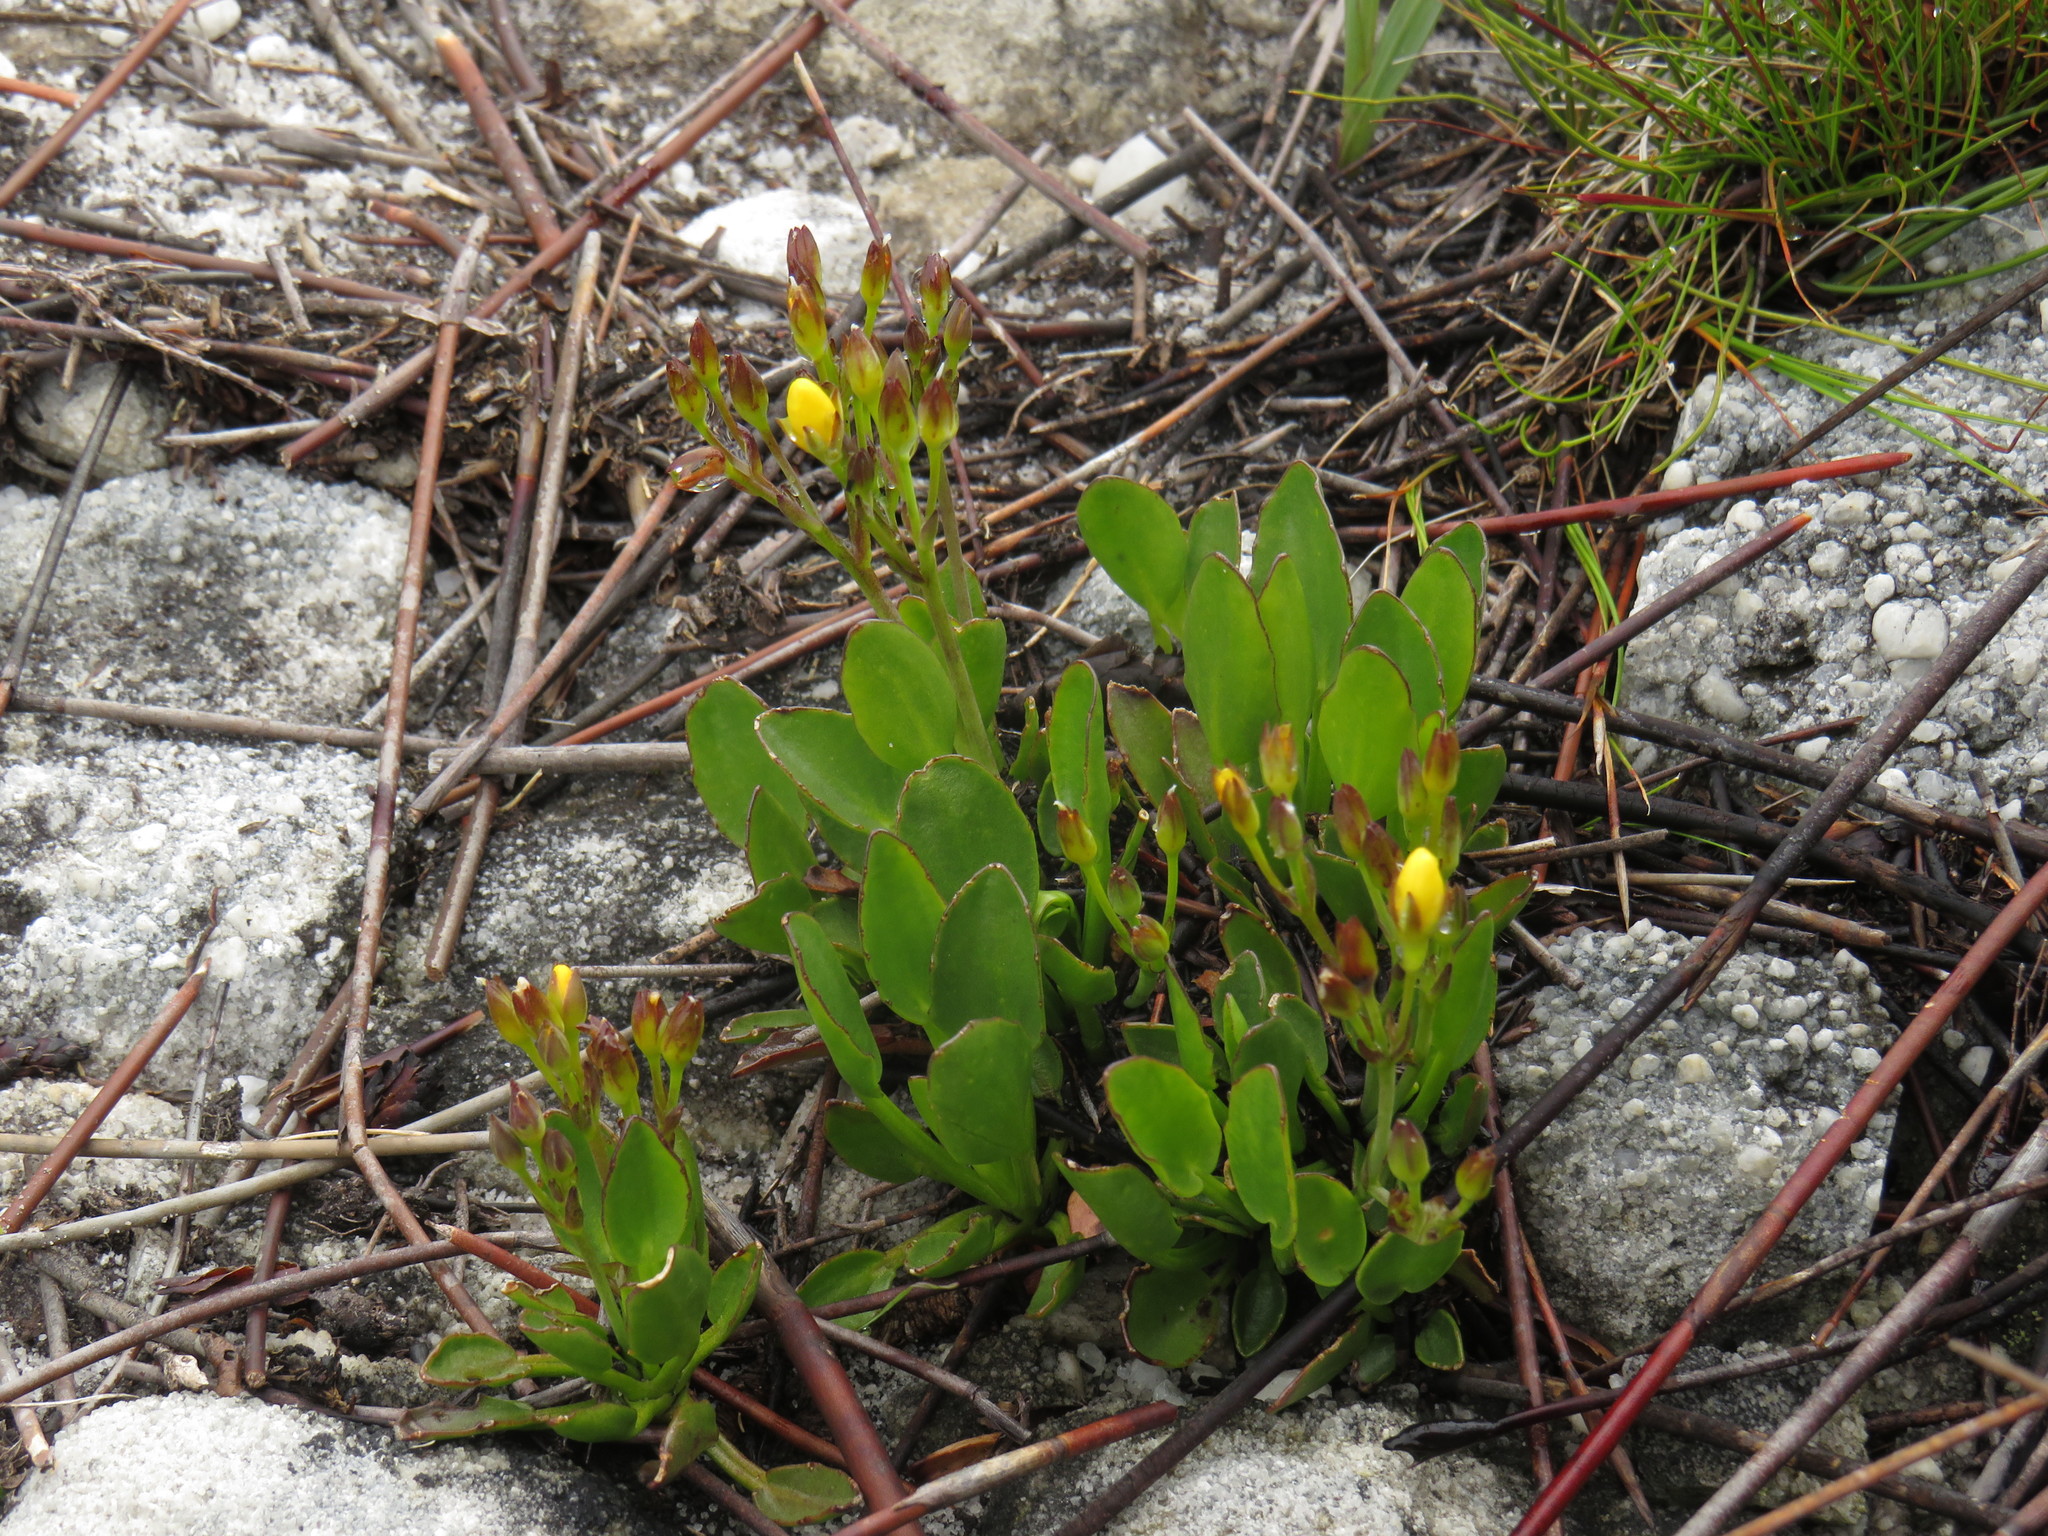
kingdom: Plantae
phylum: Tracheophyta
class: Magnoliopsida
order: Asterales
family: Menyanthaceae
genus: Villarsia
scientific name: Villarsia manningiana
